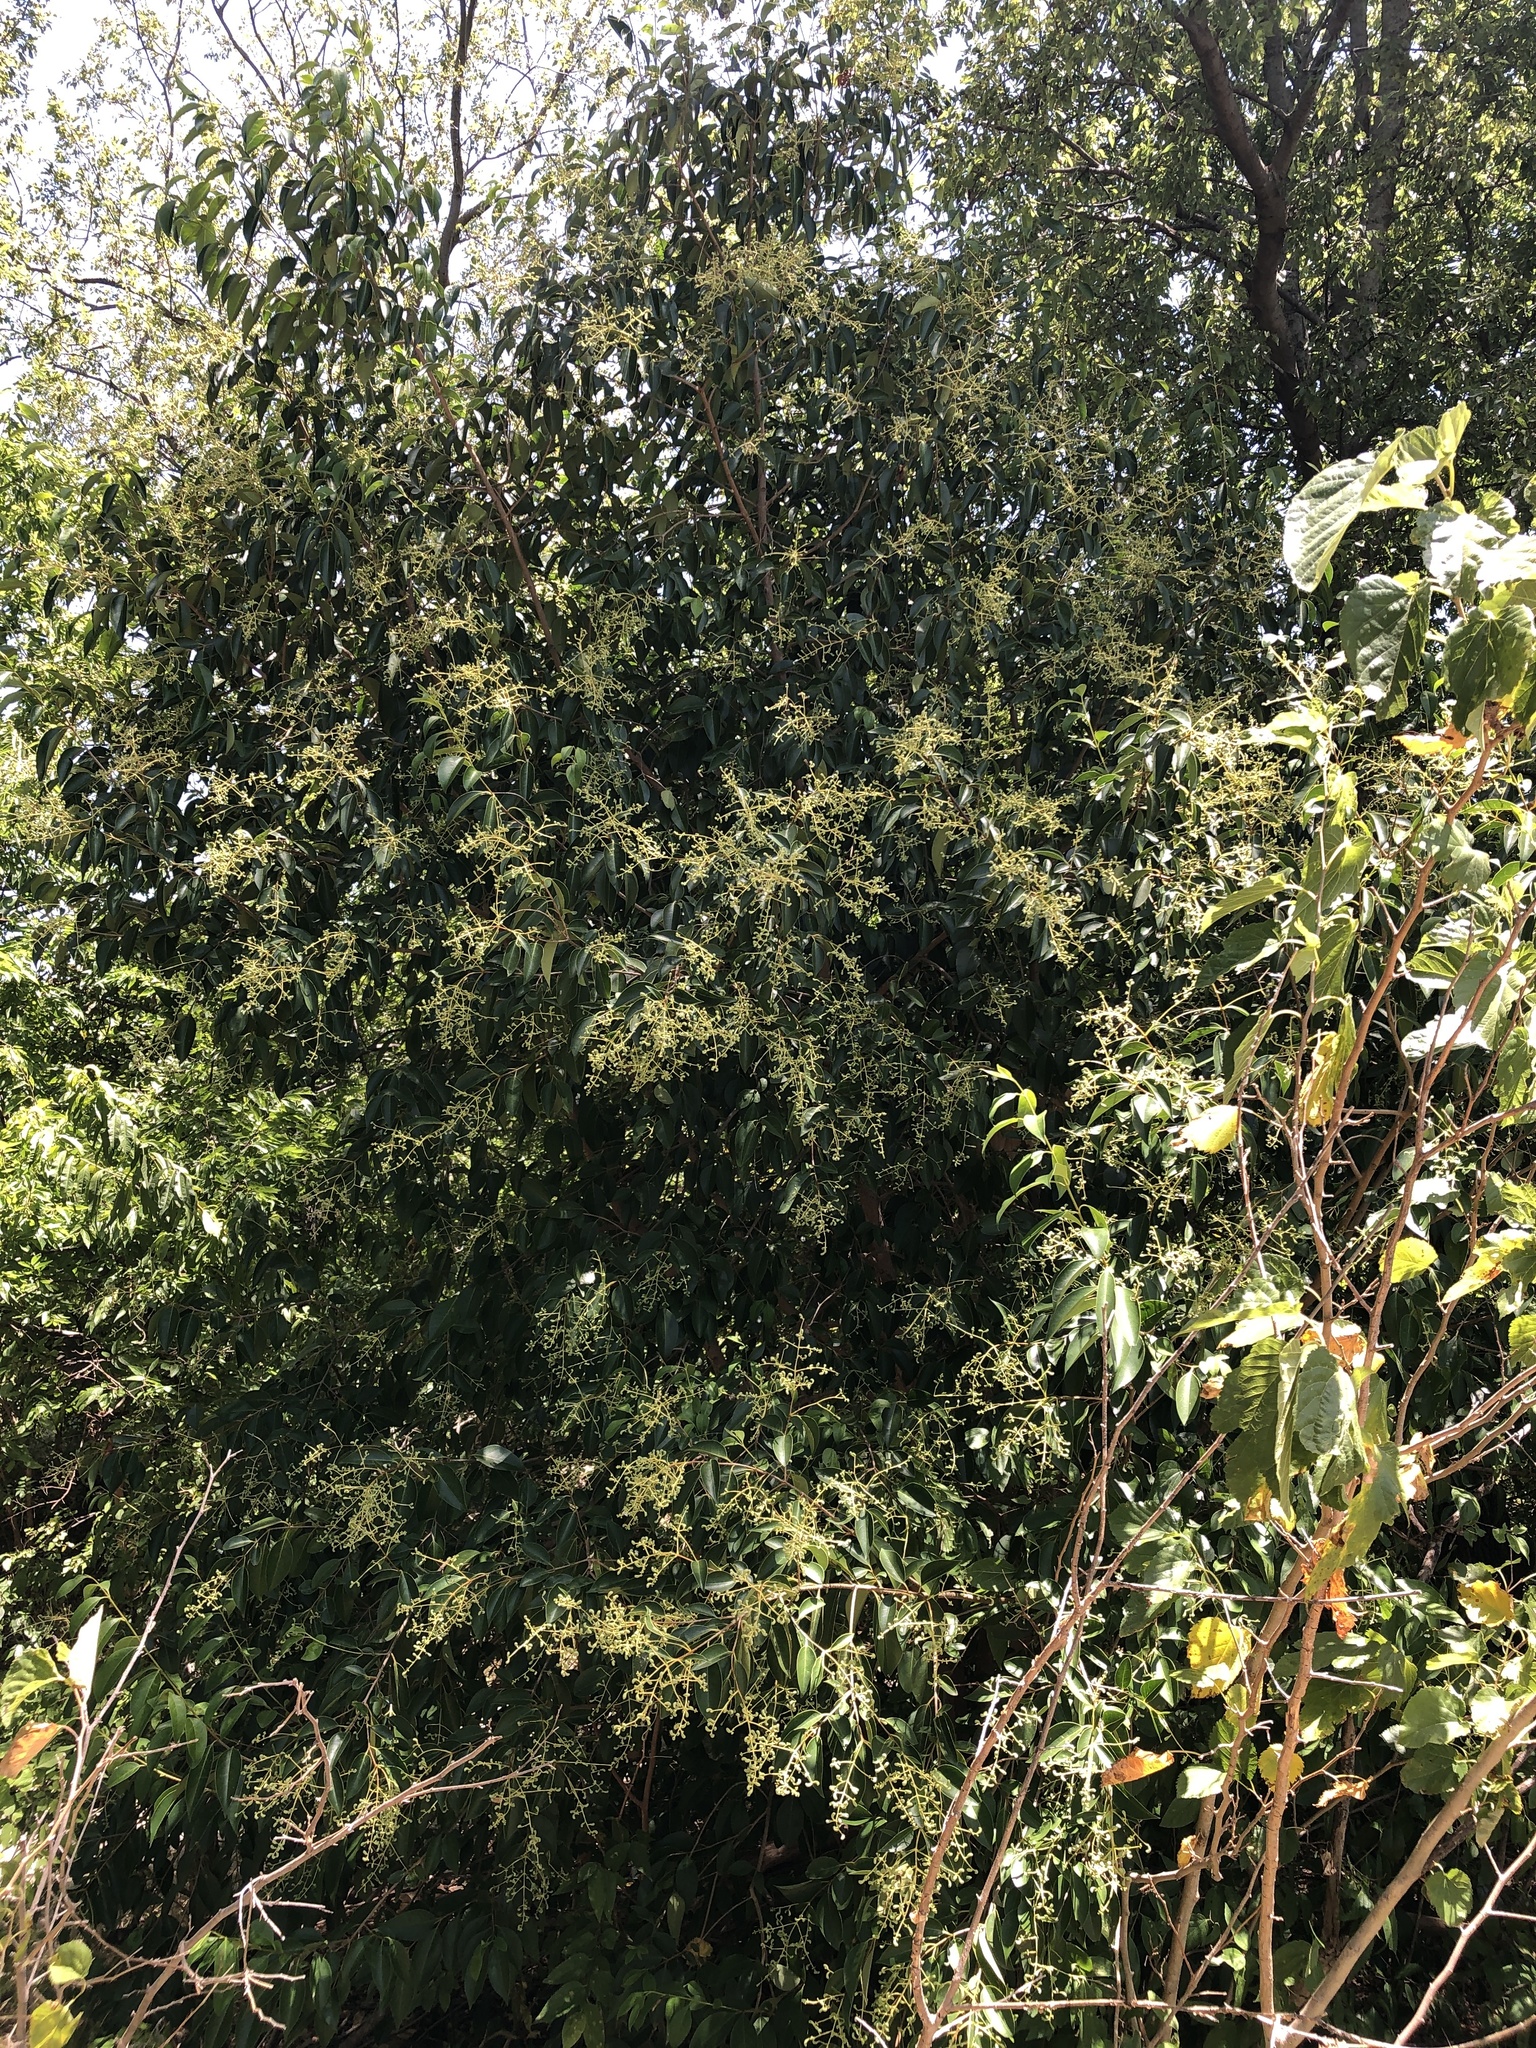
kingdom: Plantae
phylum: Tracheophyta
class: Magnoliopsida
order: Lamiales
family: Oleaceae
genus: Ligustrum
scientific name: Ligustrum lucidum
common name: Glossy privet
